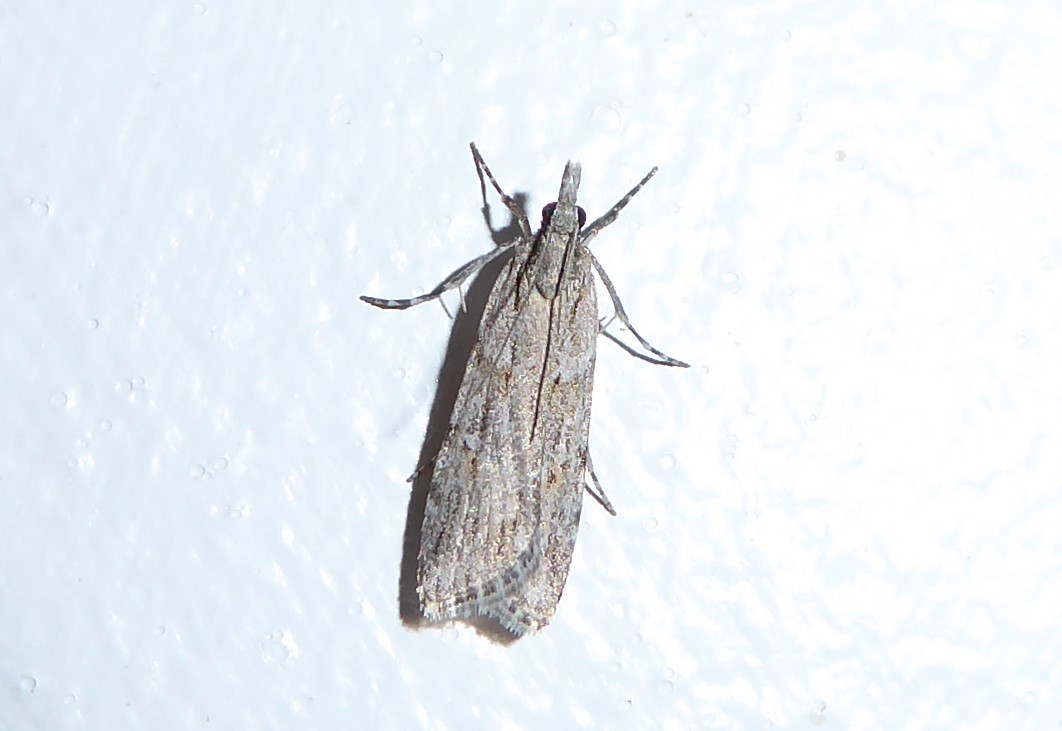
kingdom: Animalia
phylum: Arthropoda
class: Insecta
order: Lepidoptera
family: Crambidae
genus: Scoparia
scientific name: Scoparia chalicodes
